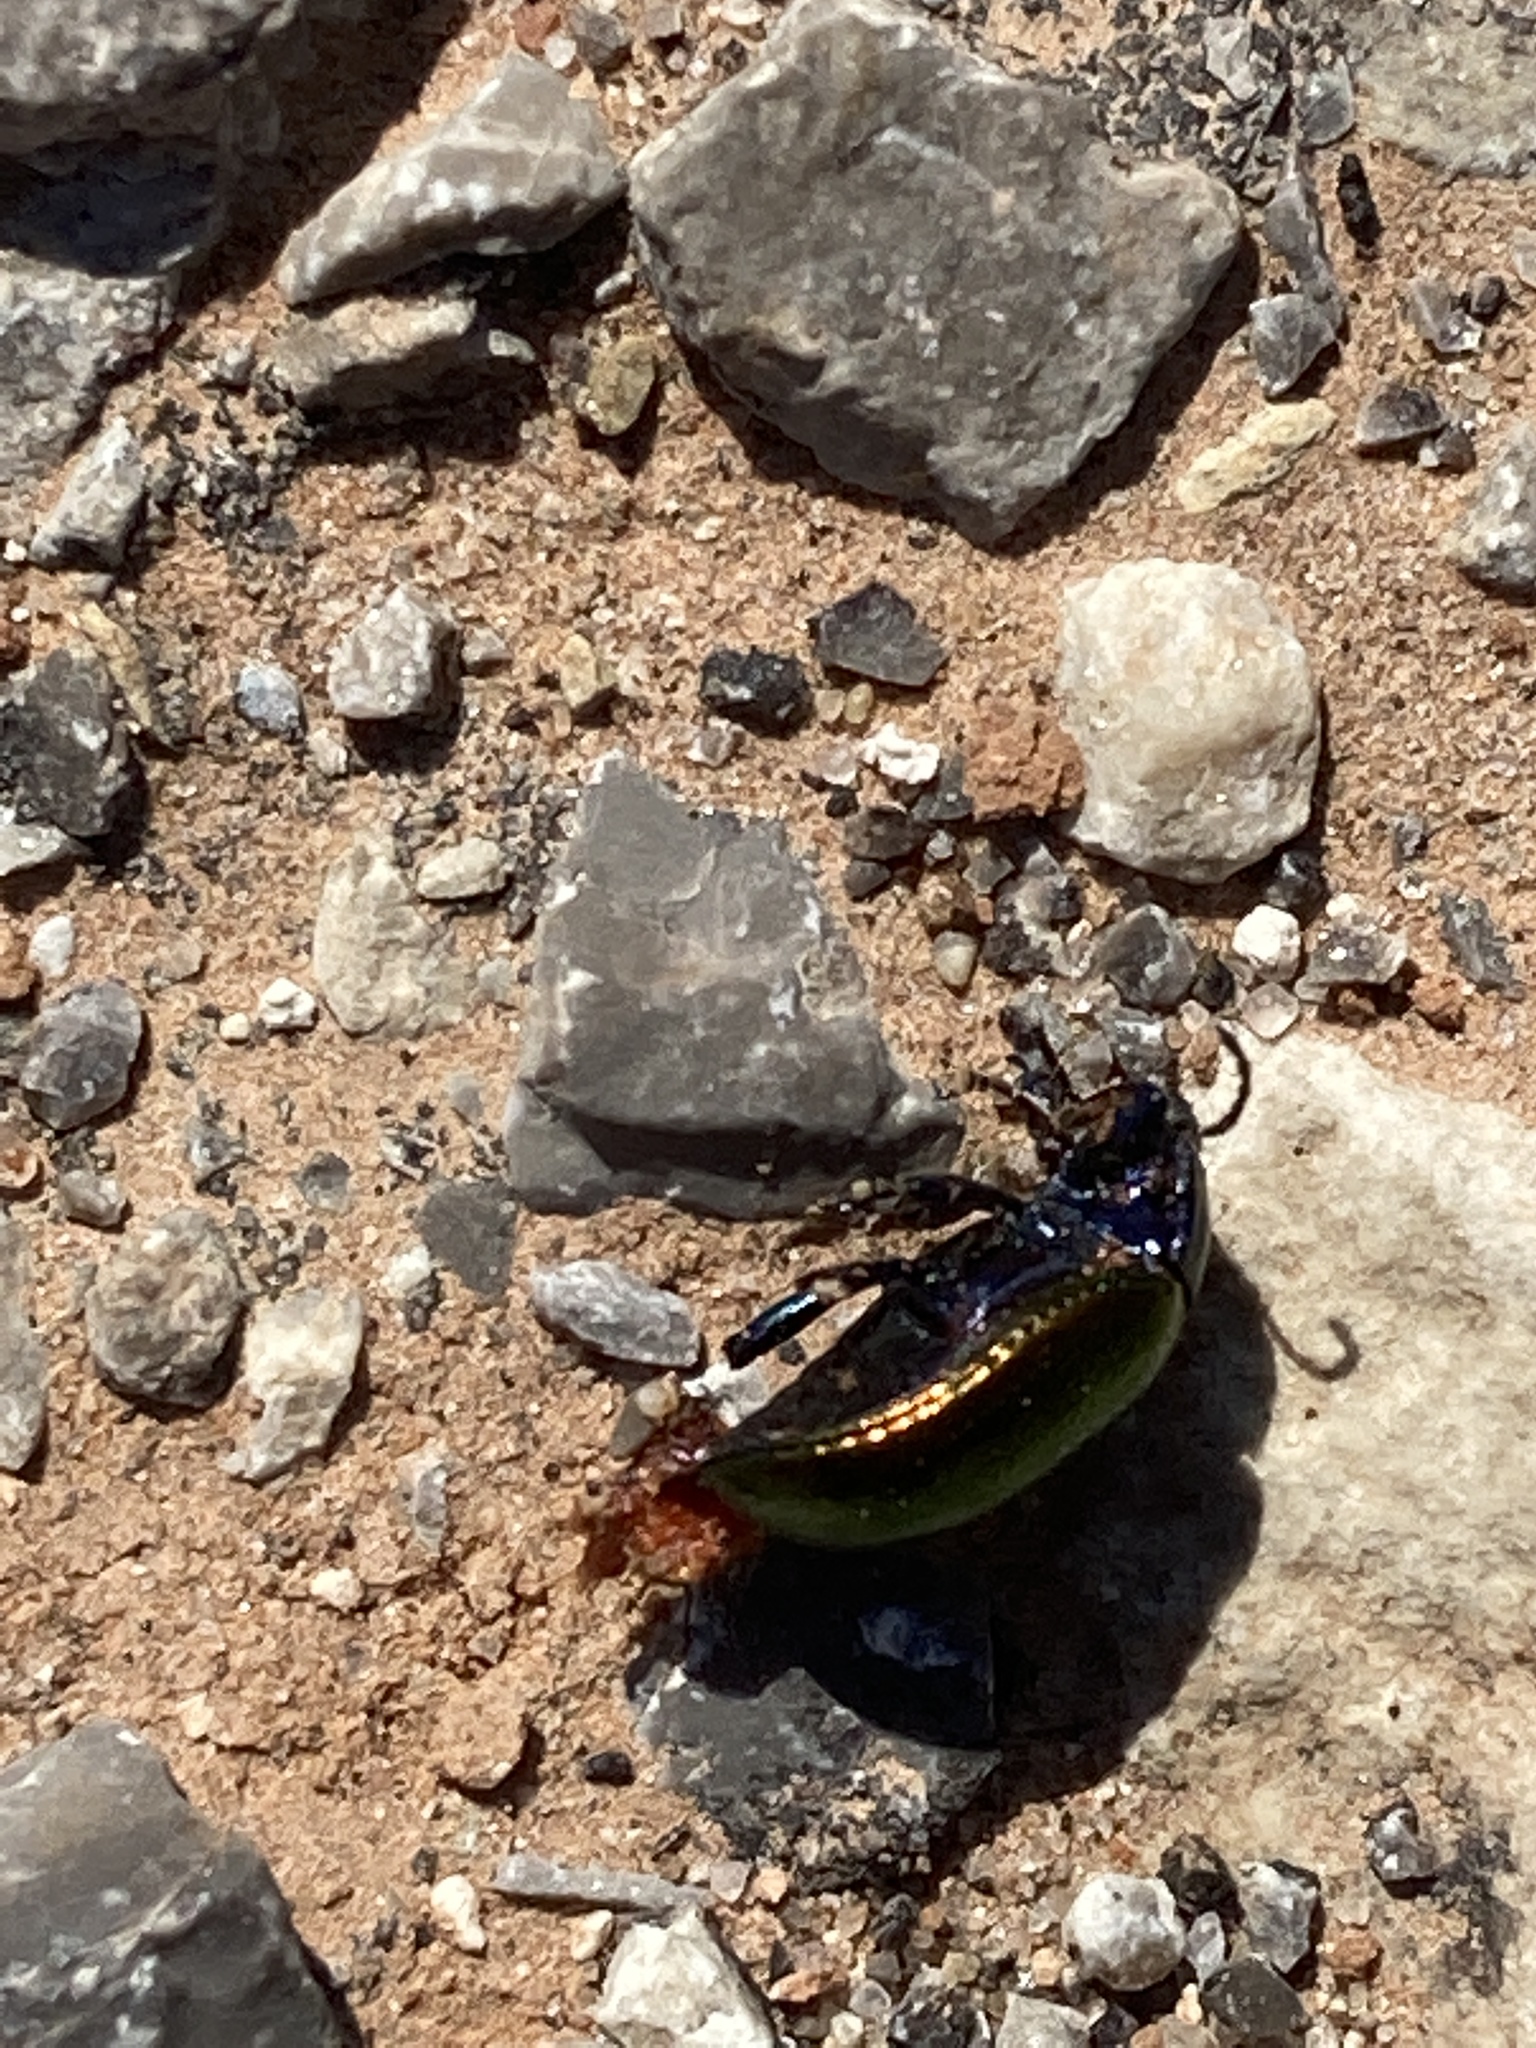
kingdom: Animalia
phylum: Arthropoda
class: Insecta
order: Coleoptera
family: Chrysomelidae
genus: Chrysolina
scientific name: Chrysolina auripennis
